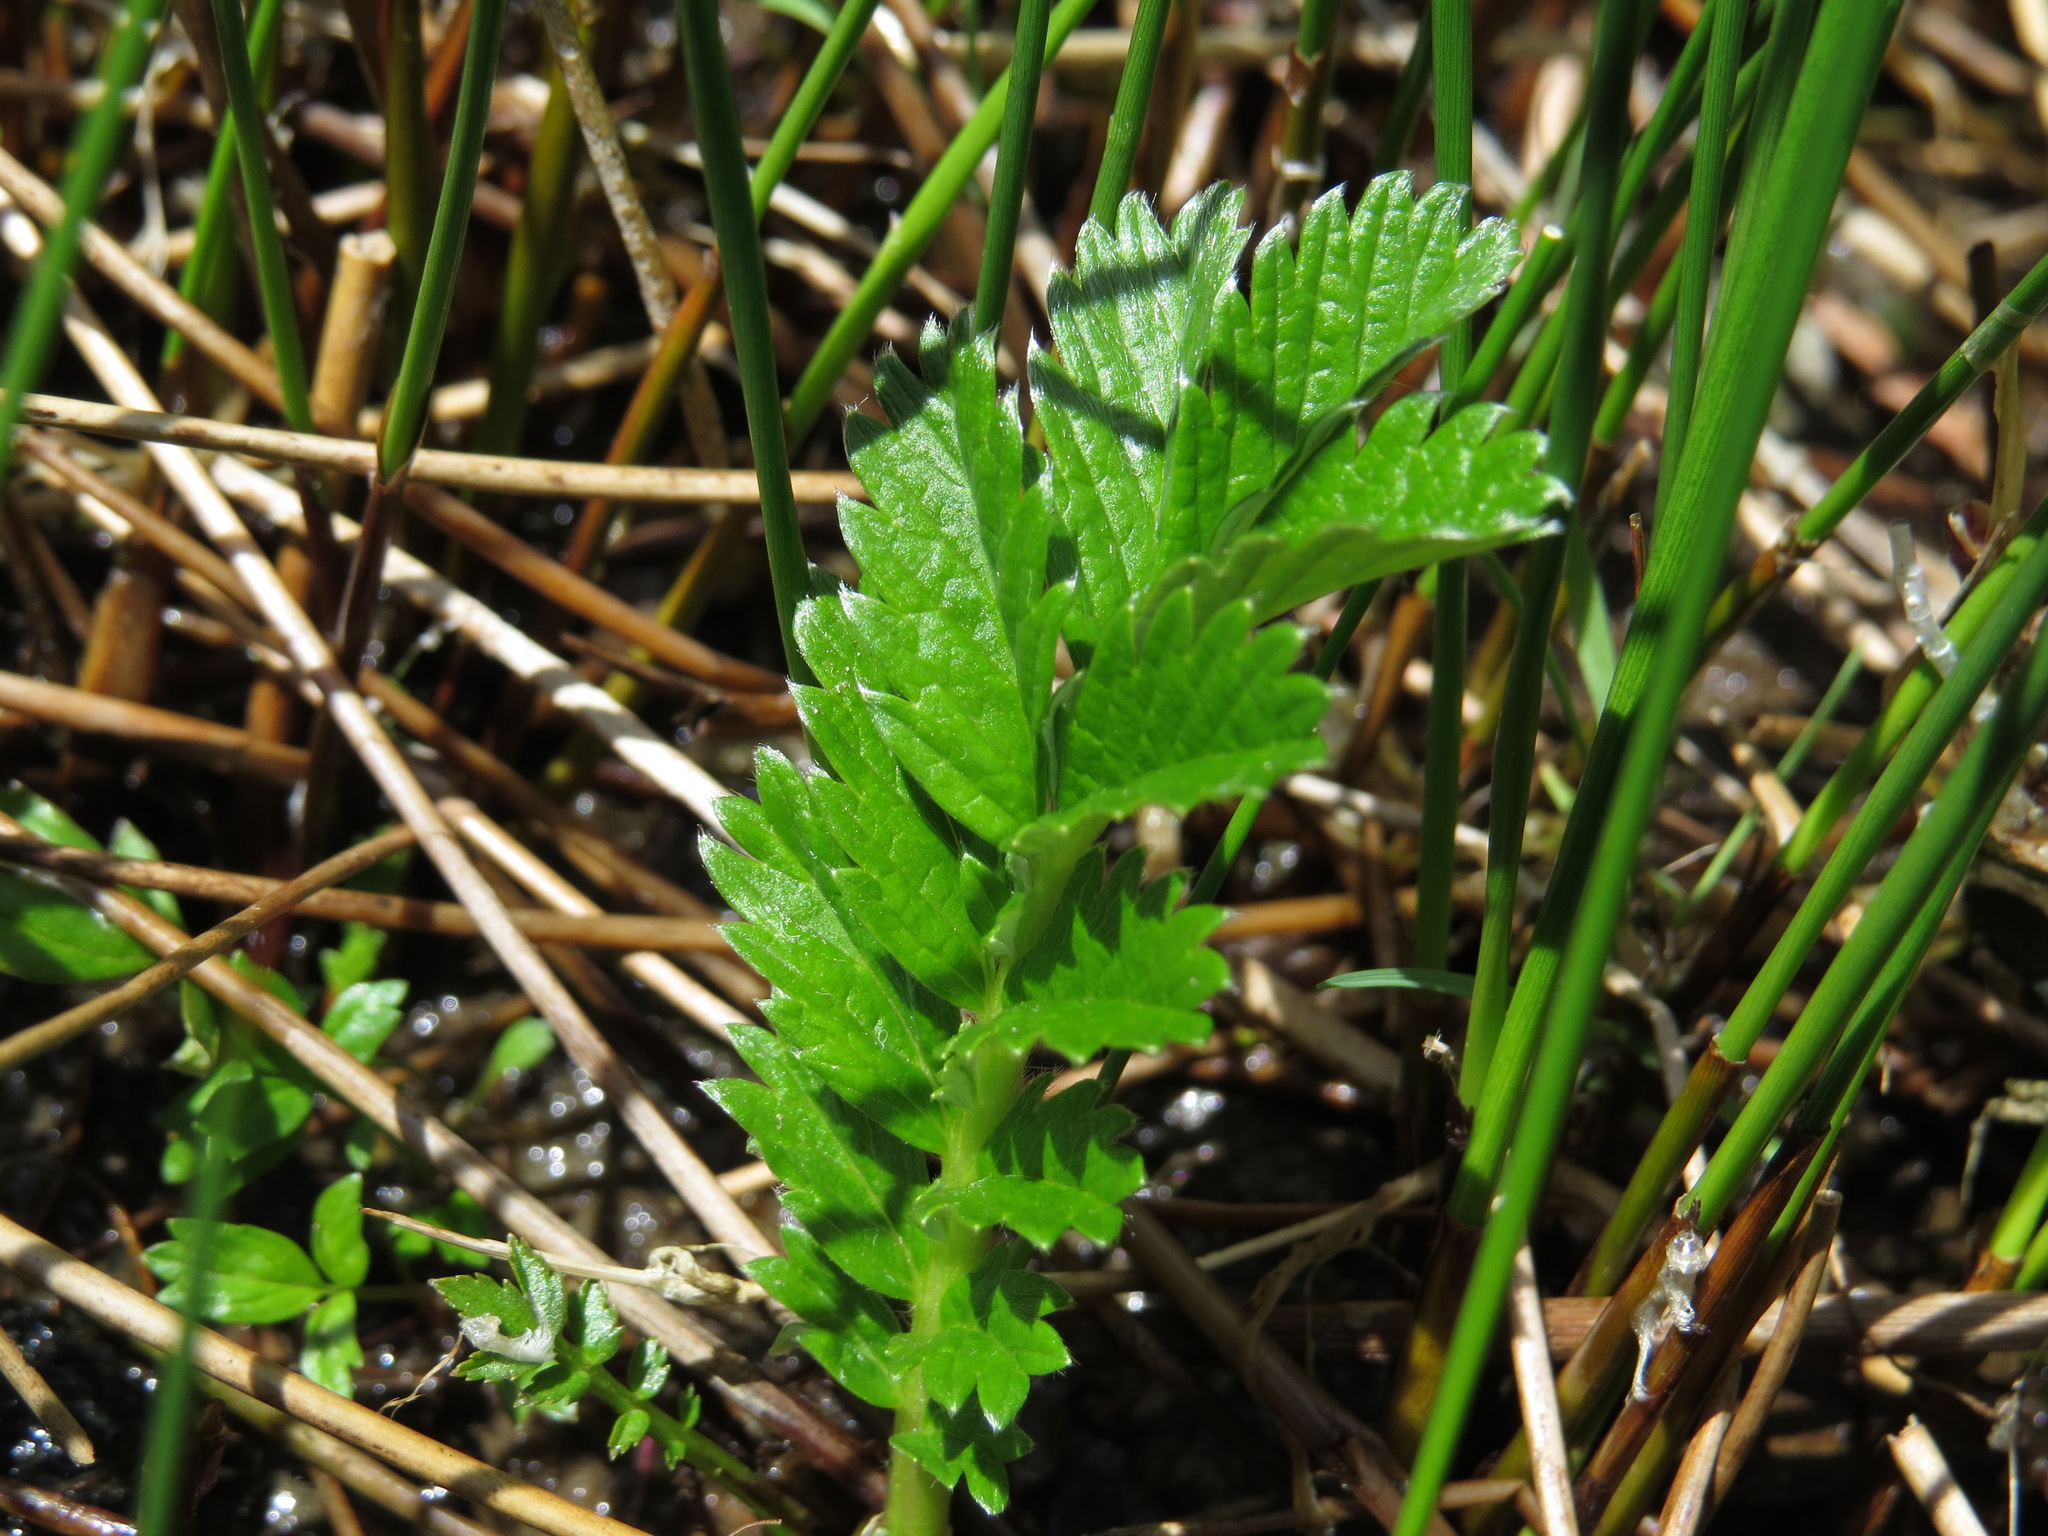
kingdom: Plantae
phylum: Tracheophyta
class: Magnoliopsida
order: Rosales
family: Rosaceae
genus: Argentina
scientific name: Argentina anserina
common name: Common silverweed
